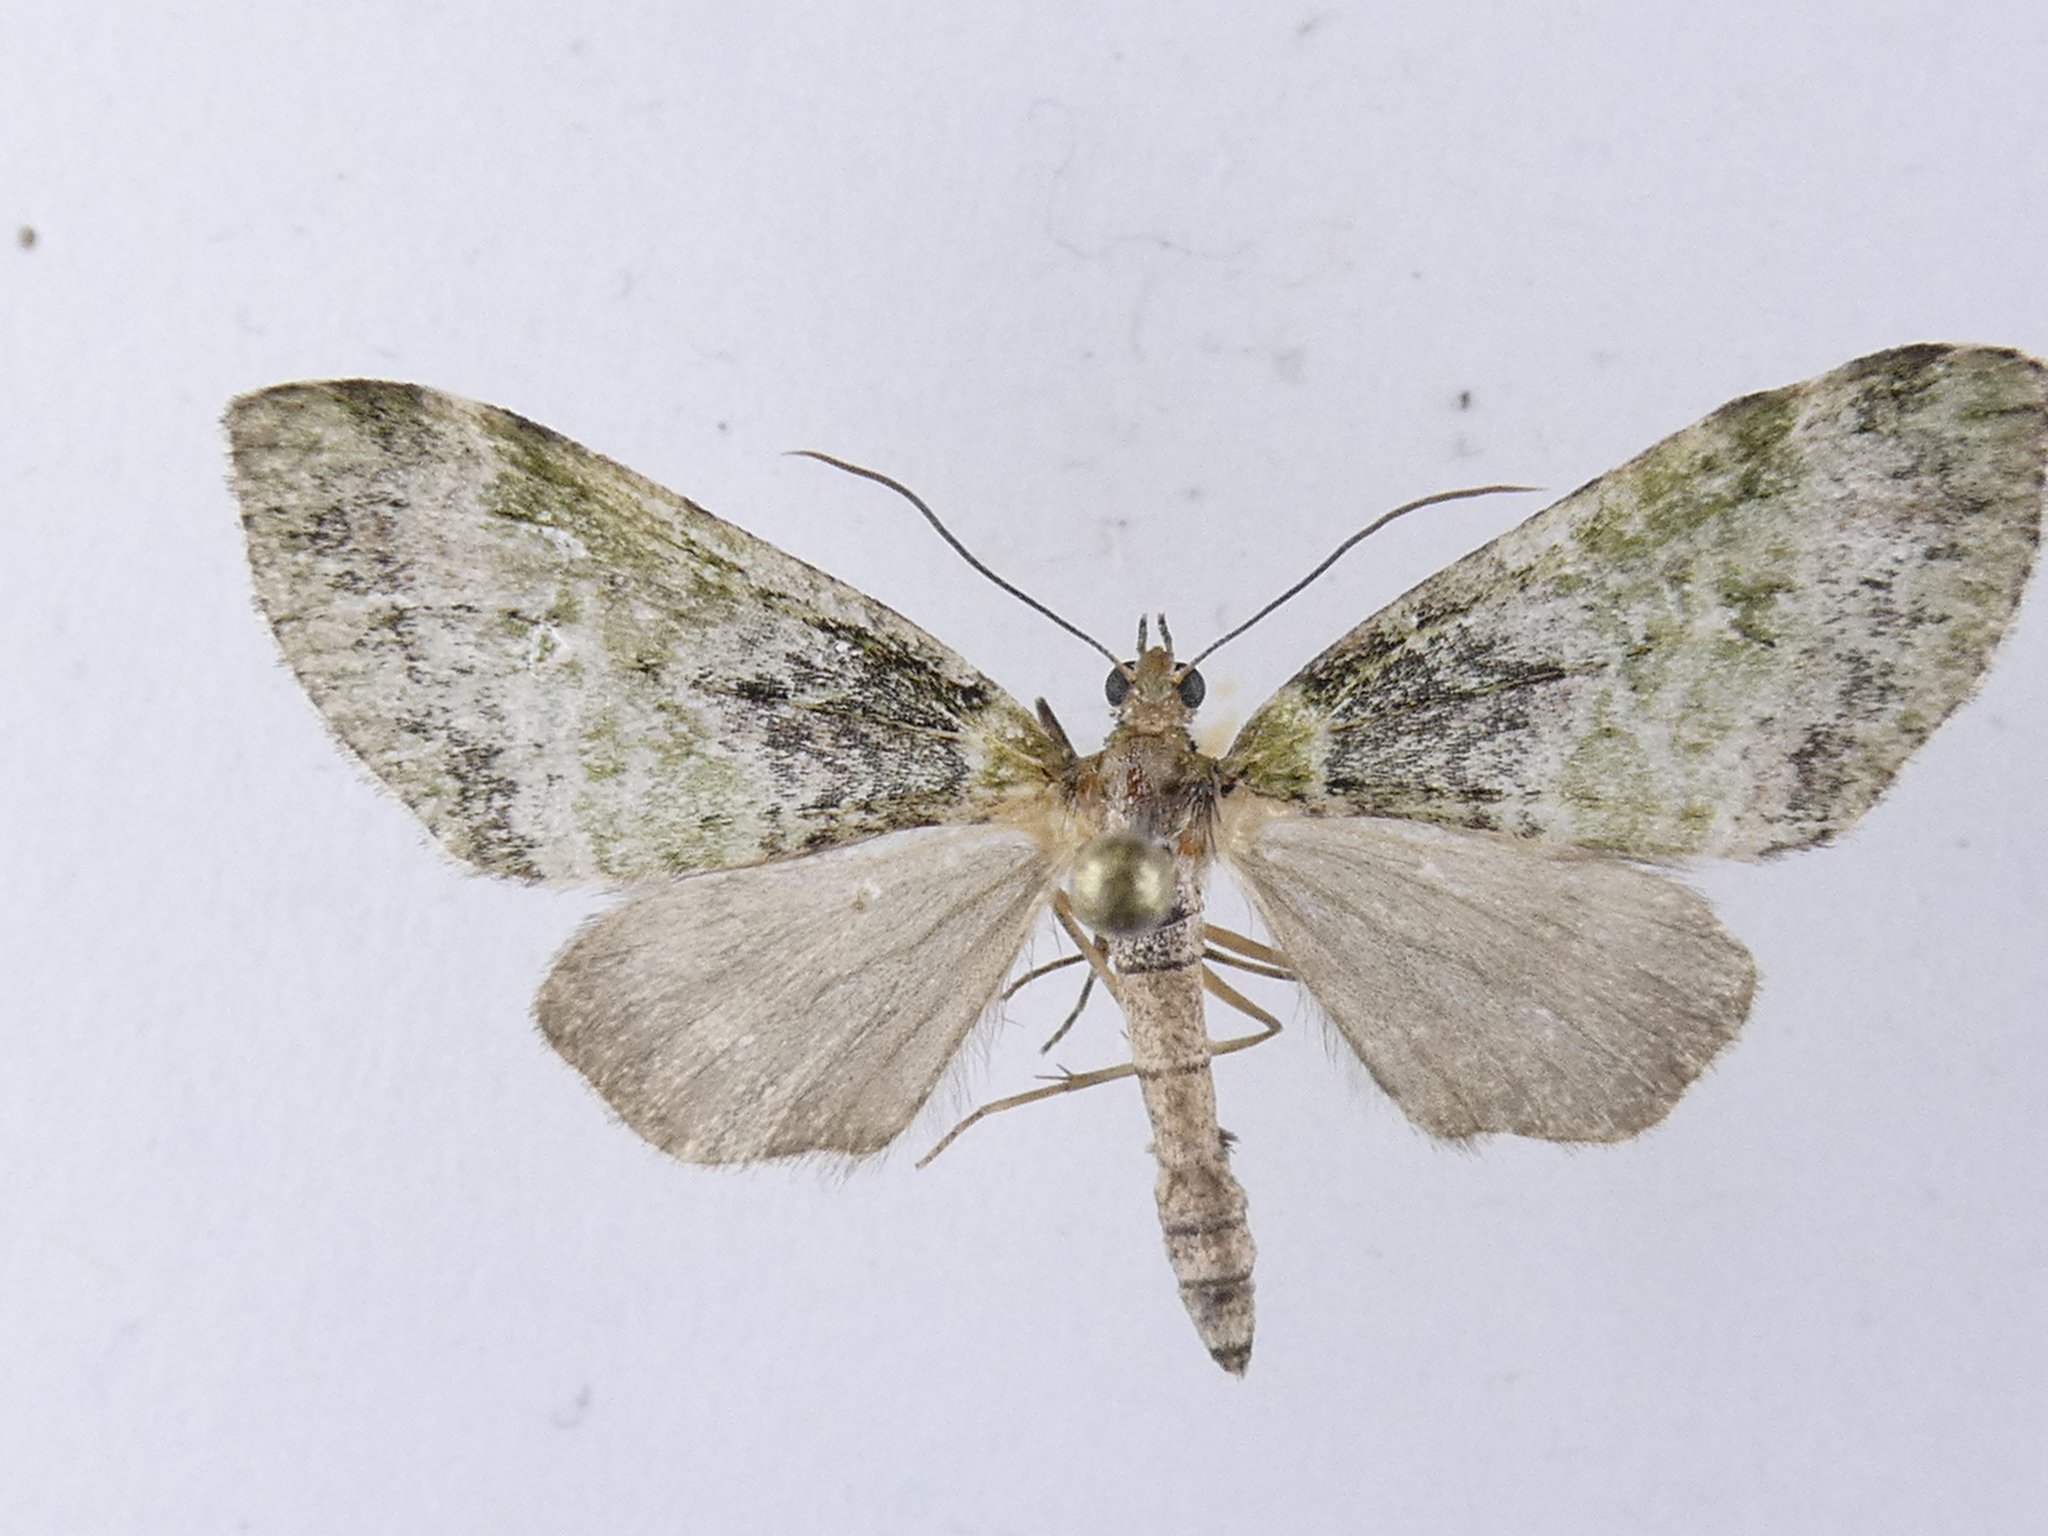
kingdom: Animalia
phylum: Arthropoda
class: Insecta
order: Lepidoptera
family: Geometridae
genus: Tatosoma
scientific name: Tatosoma topea
